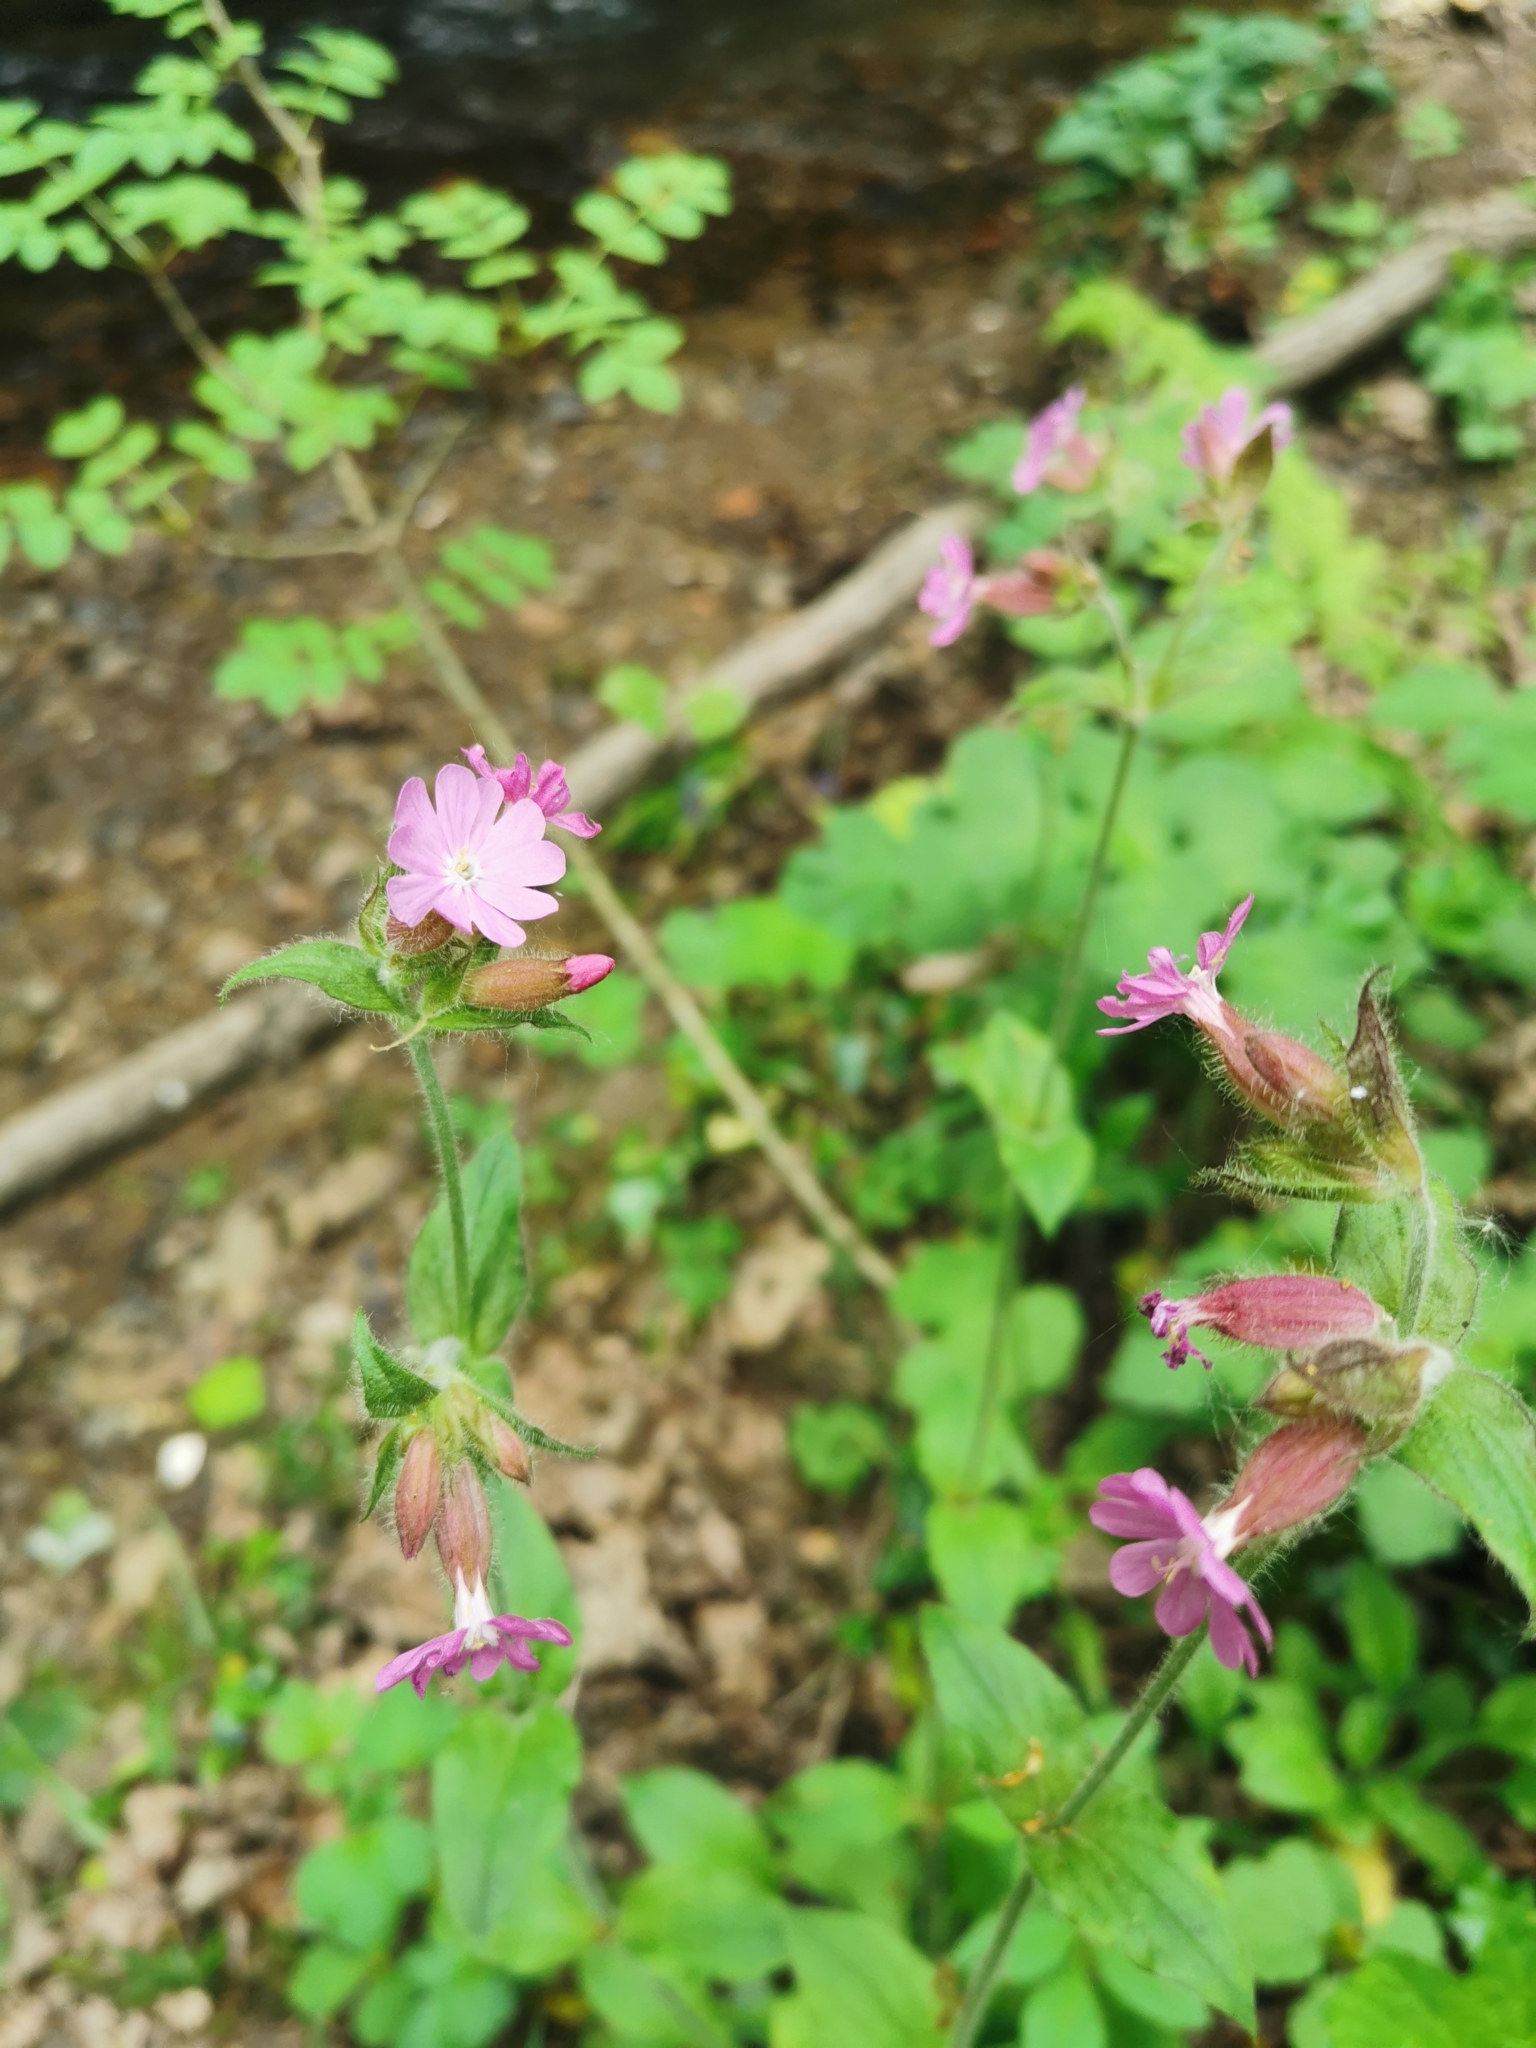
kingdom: Plantae
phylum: Tracheophyta
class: Magnoliopsida
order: Caryophyllales
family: Caryophyllaceae
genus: Silene
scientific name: Silene dioica
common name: Red campion
